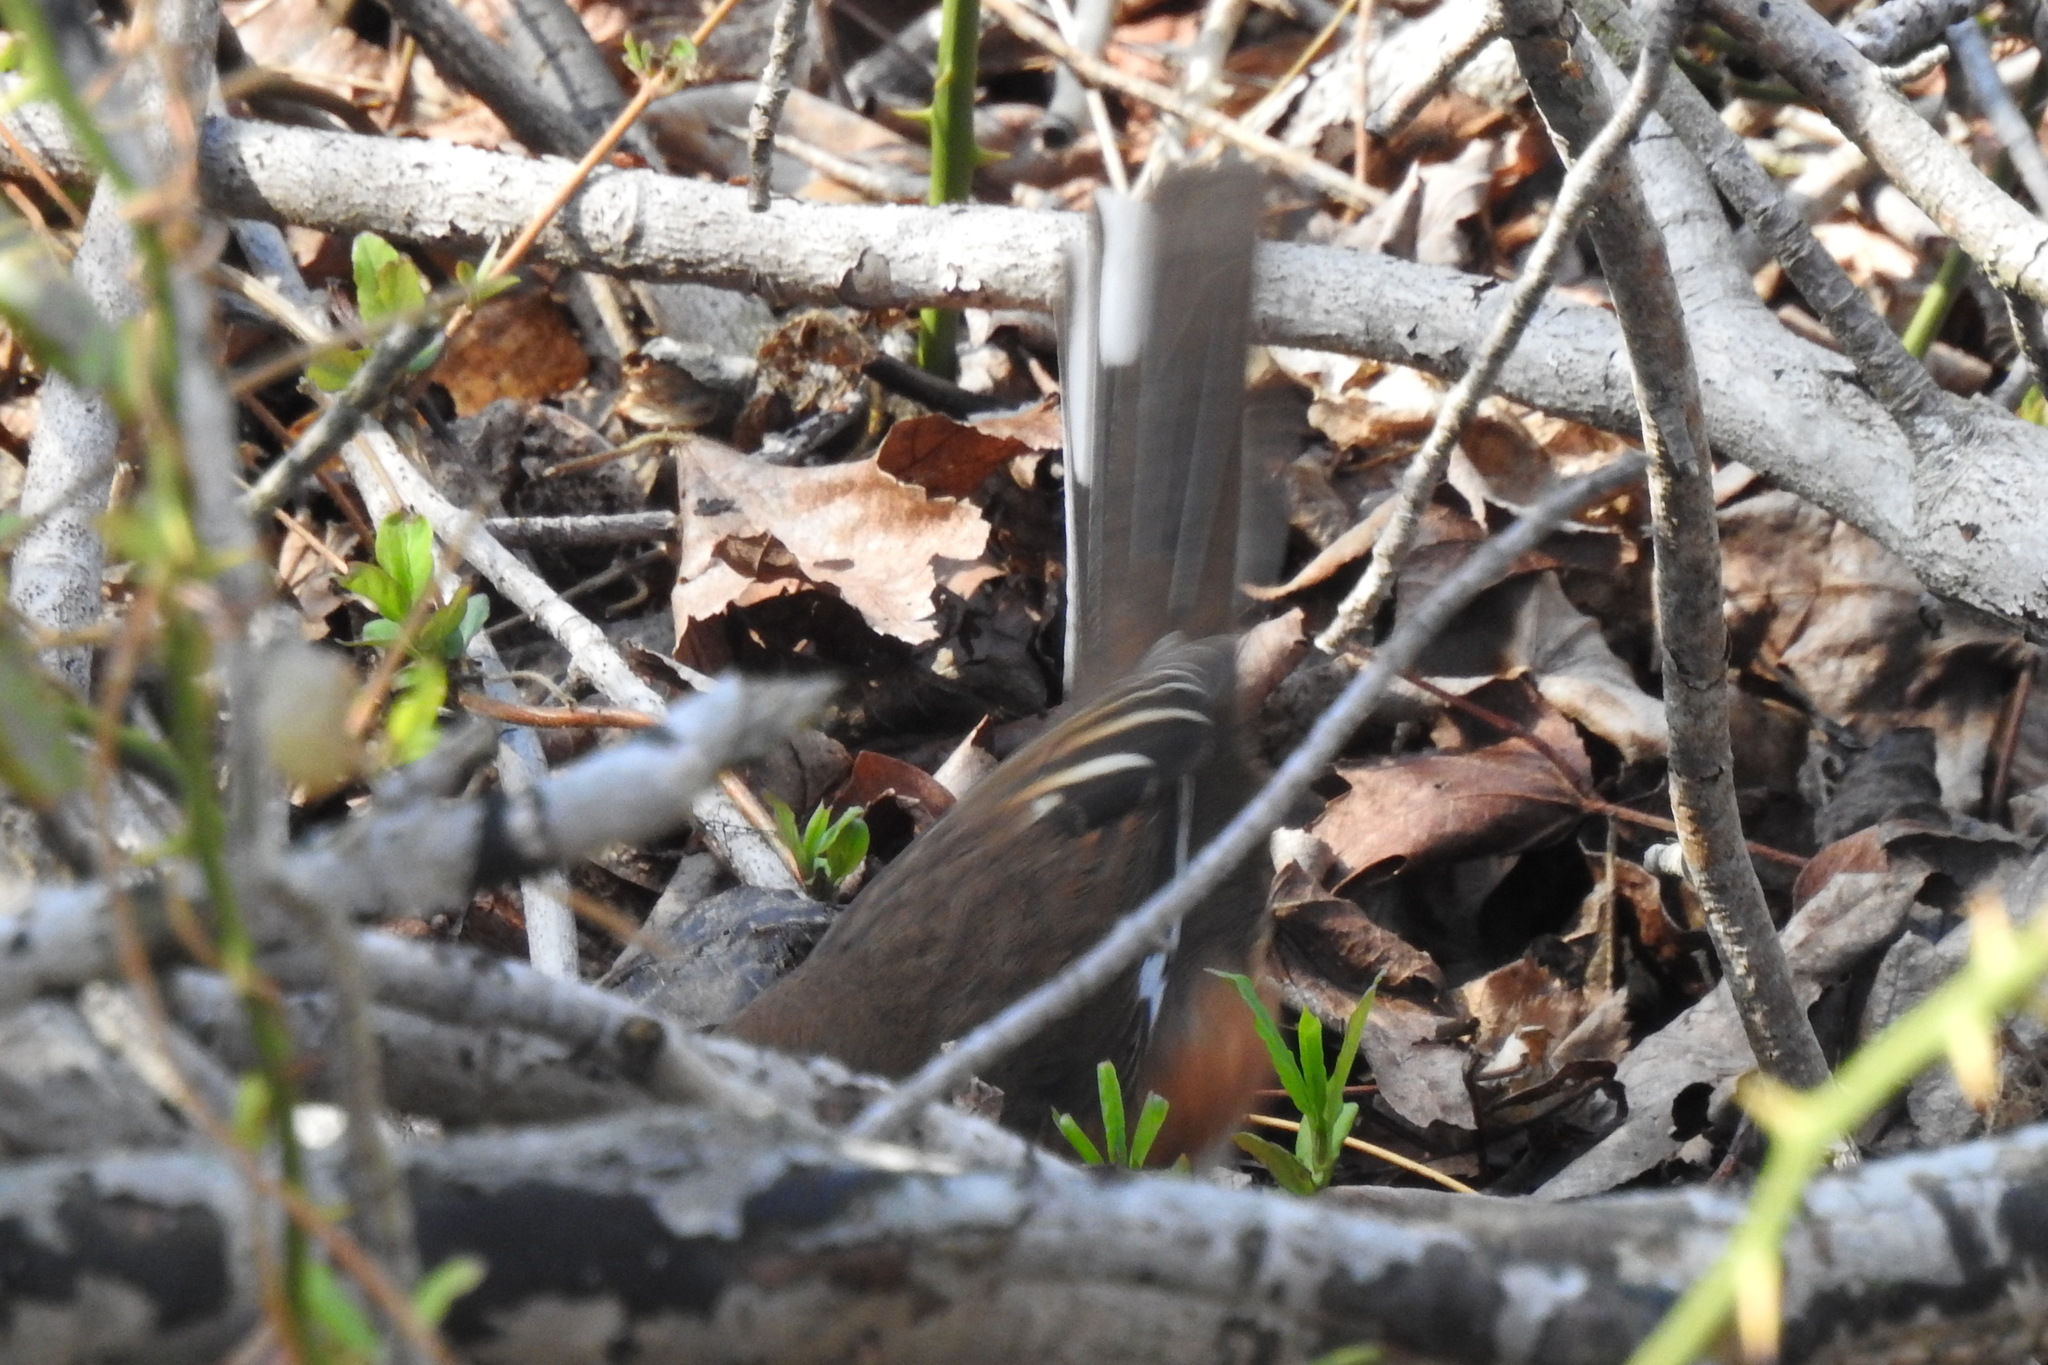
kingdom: Animalia
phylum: Chordata
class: Aves
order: Passeriformes
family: Passerellidae
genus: Pipilo
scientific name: Pipilo erythrophthalmus
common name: Eastern towhee
